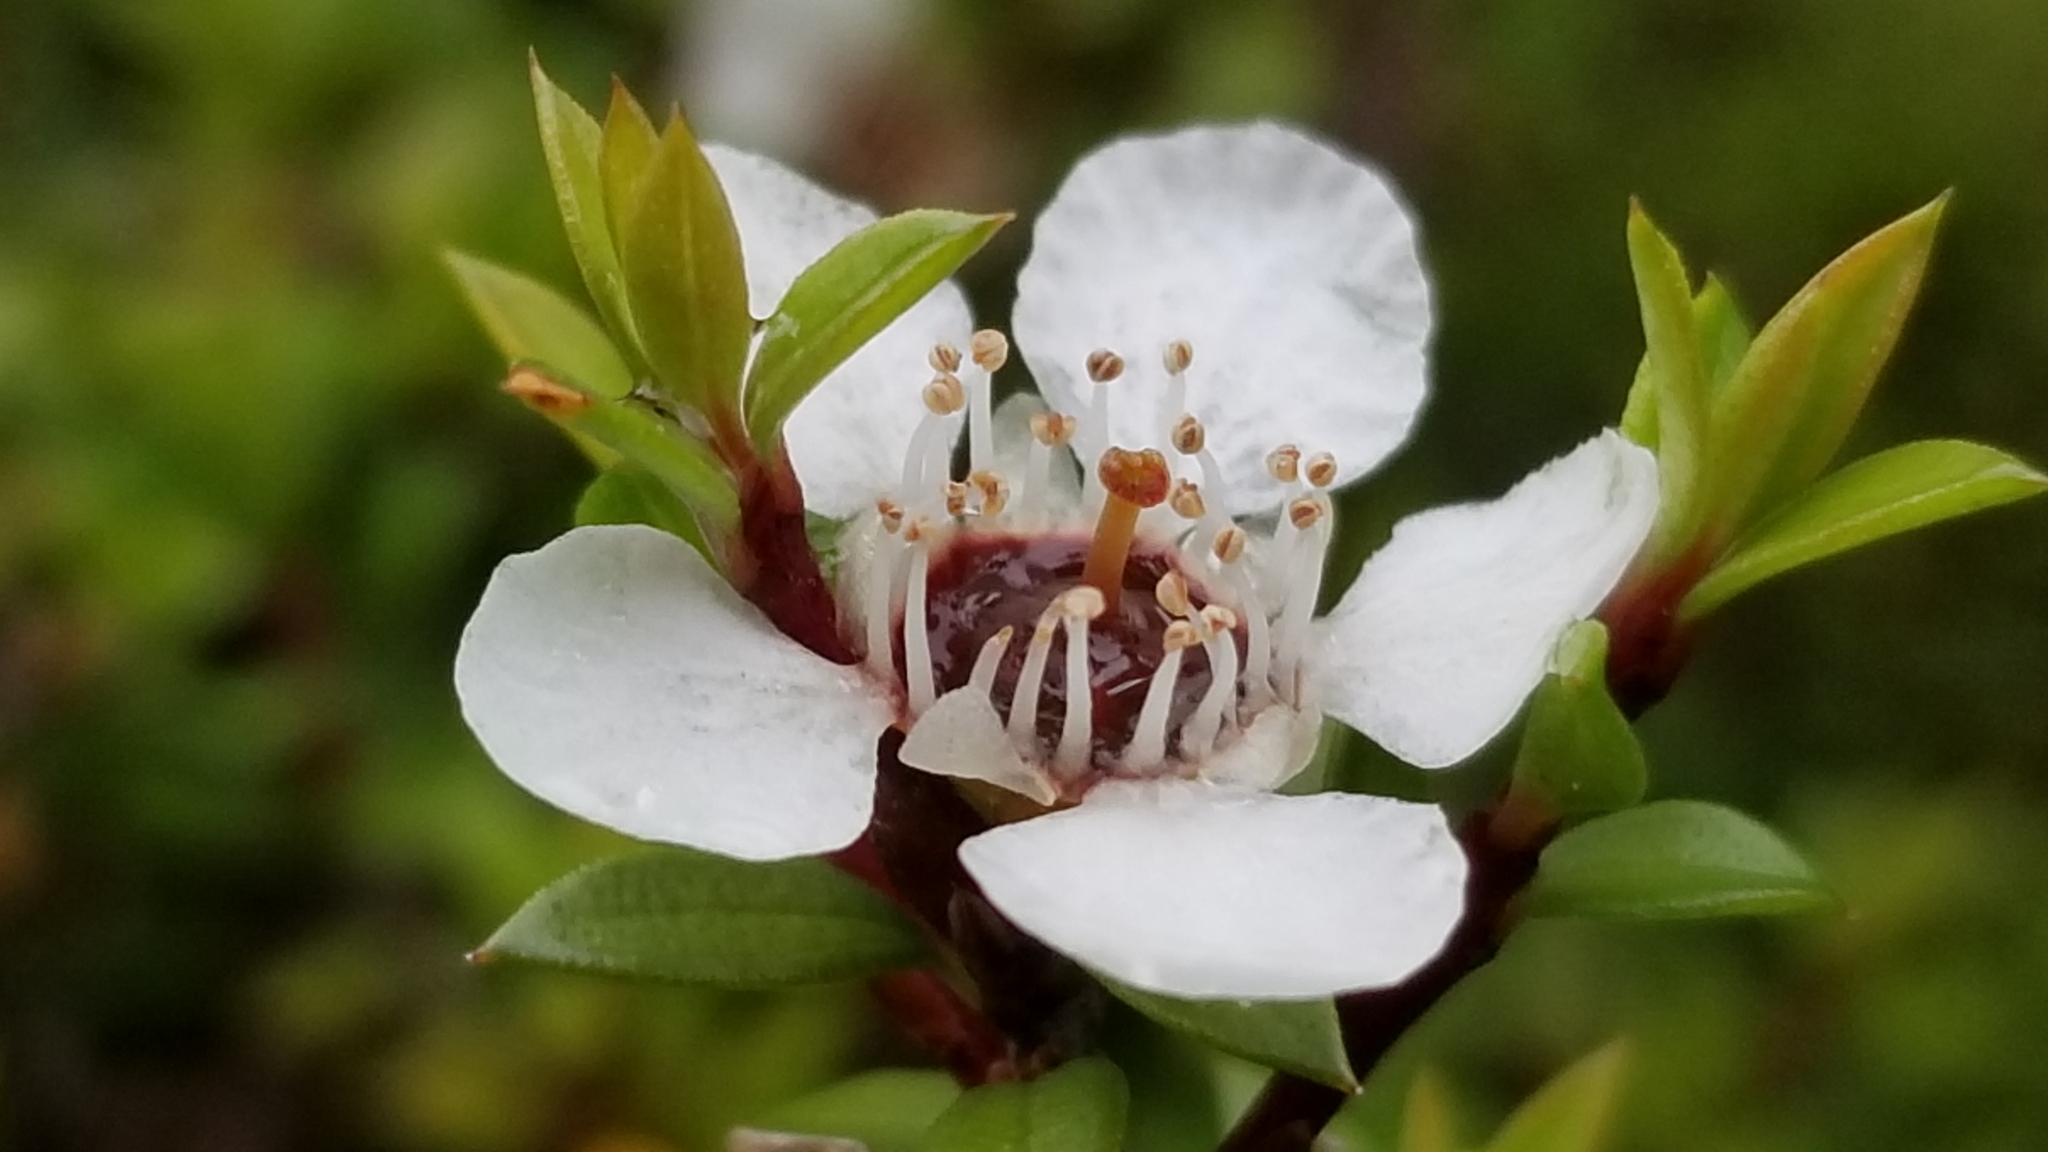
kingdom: Plantae
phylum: Tracheophyta
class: Magnoliopsida
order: Myrtales
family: Myrtaceae
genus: Leptospermum
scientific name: Leptospermum scoparium
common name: Broom tea-tree
